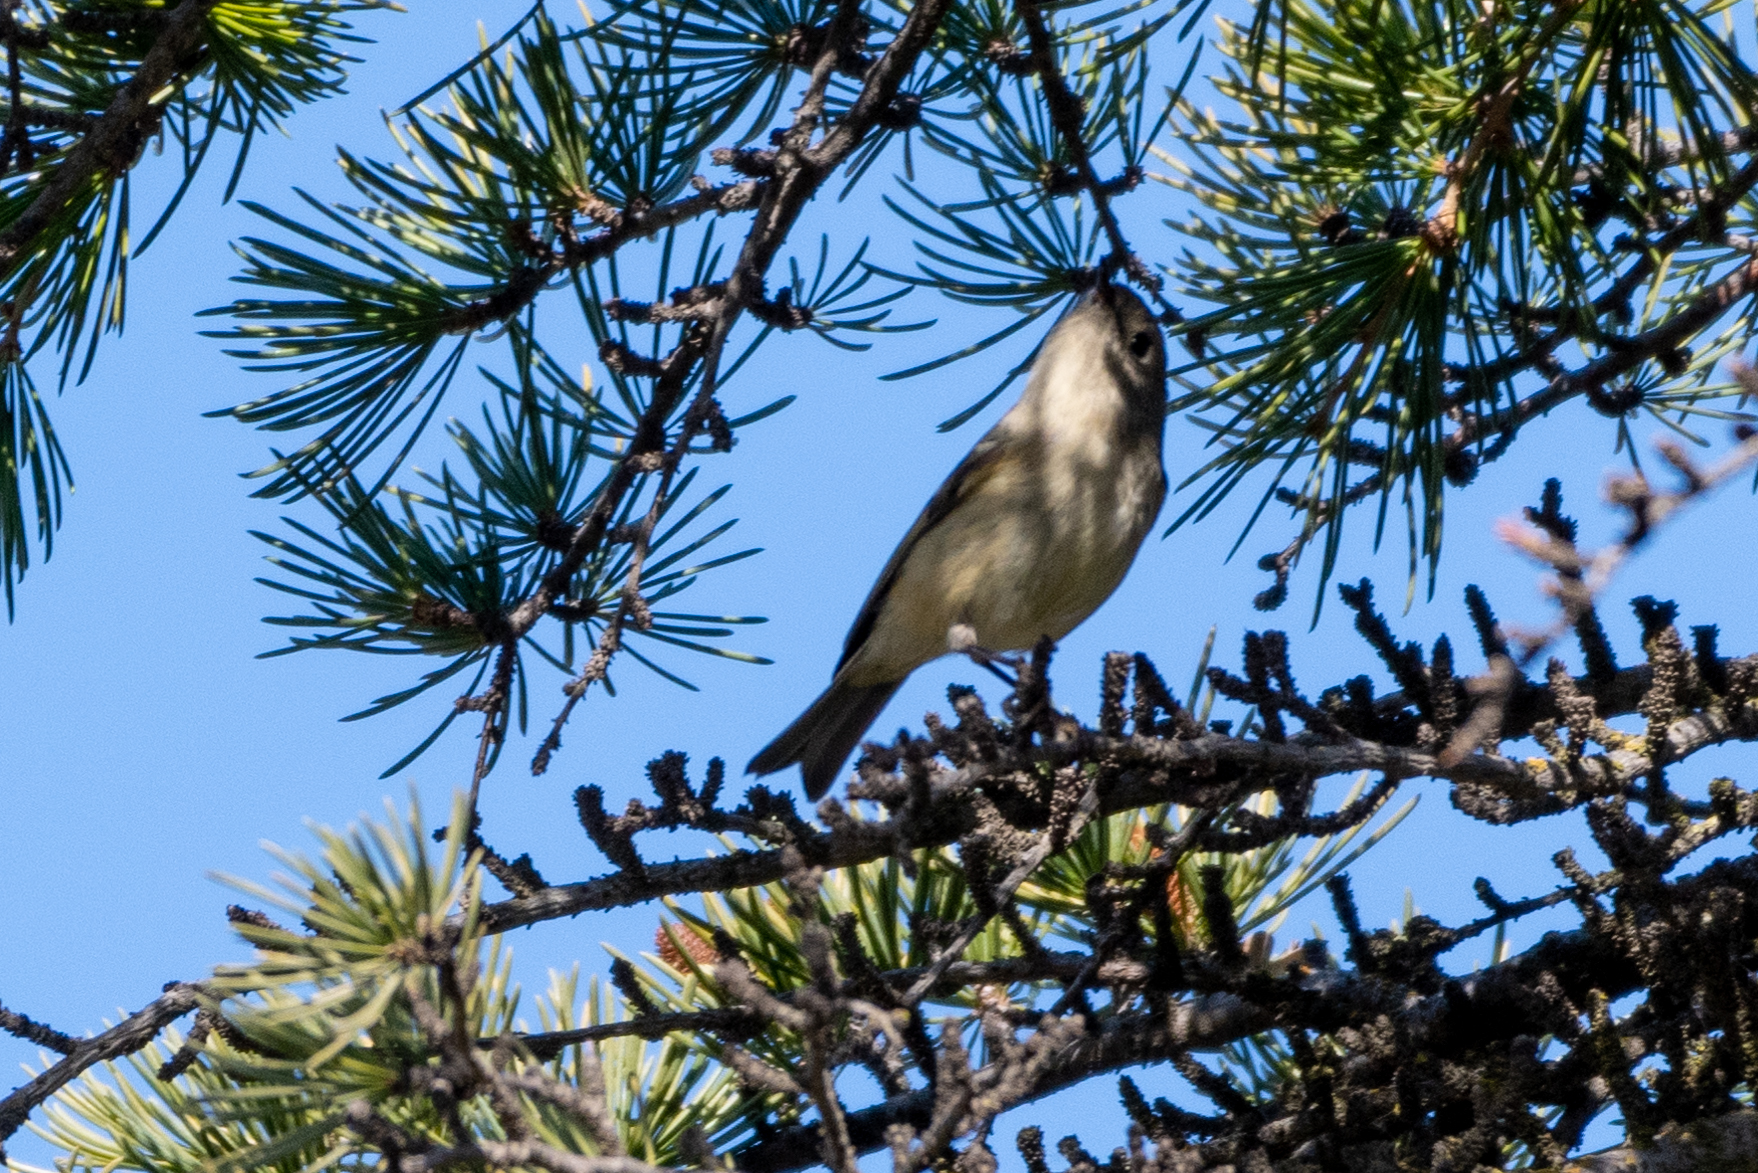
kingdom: Animalia
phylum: Chordata
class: Aves
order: Passeriformes
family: Regulidae
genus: Regulus
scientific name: Regulus calendula
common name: Ruby-crowned kinglet
